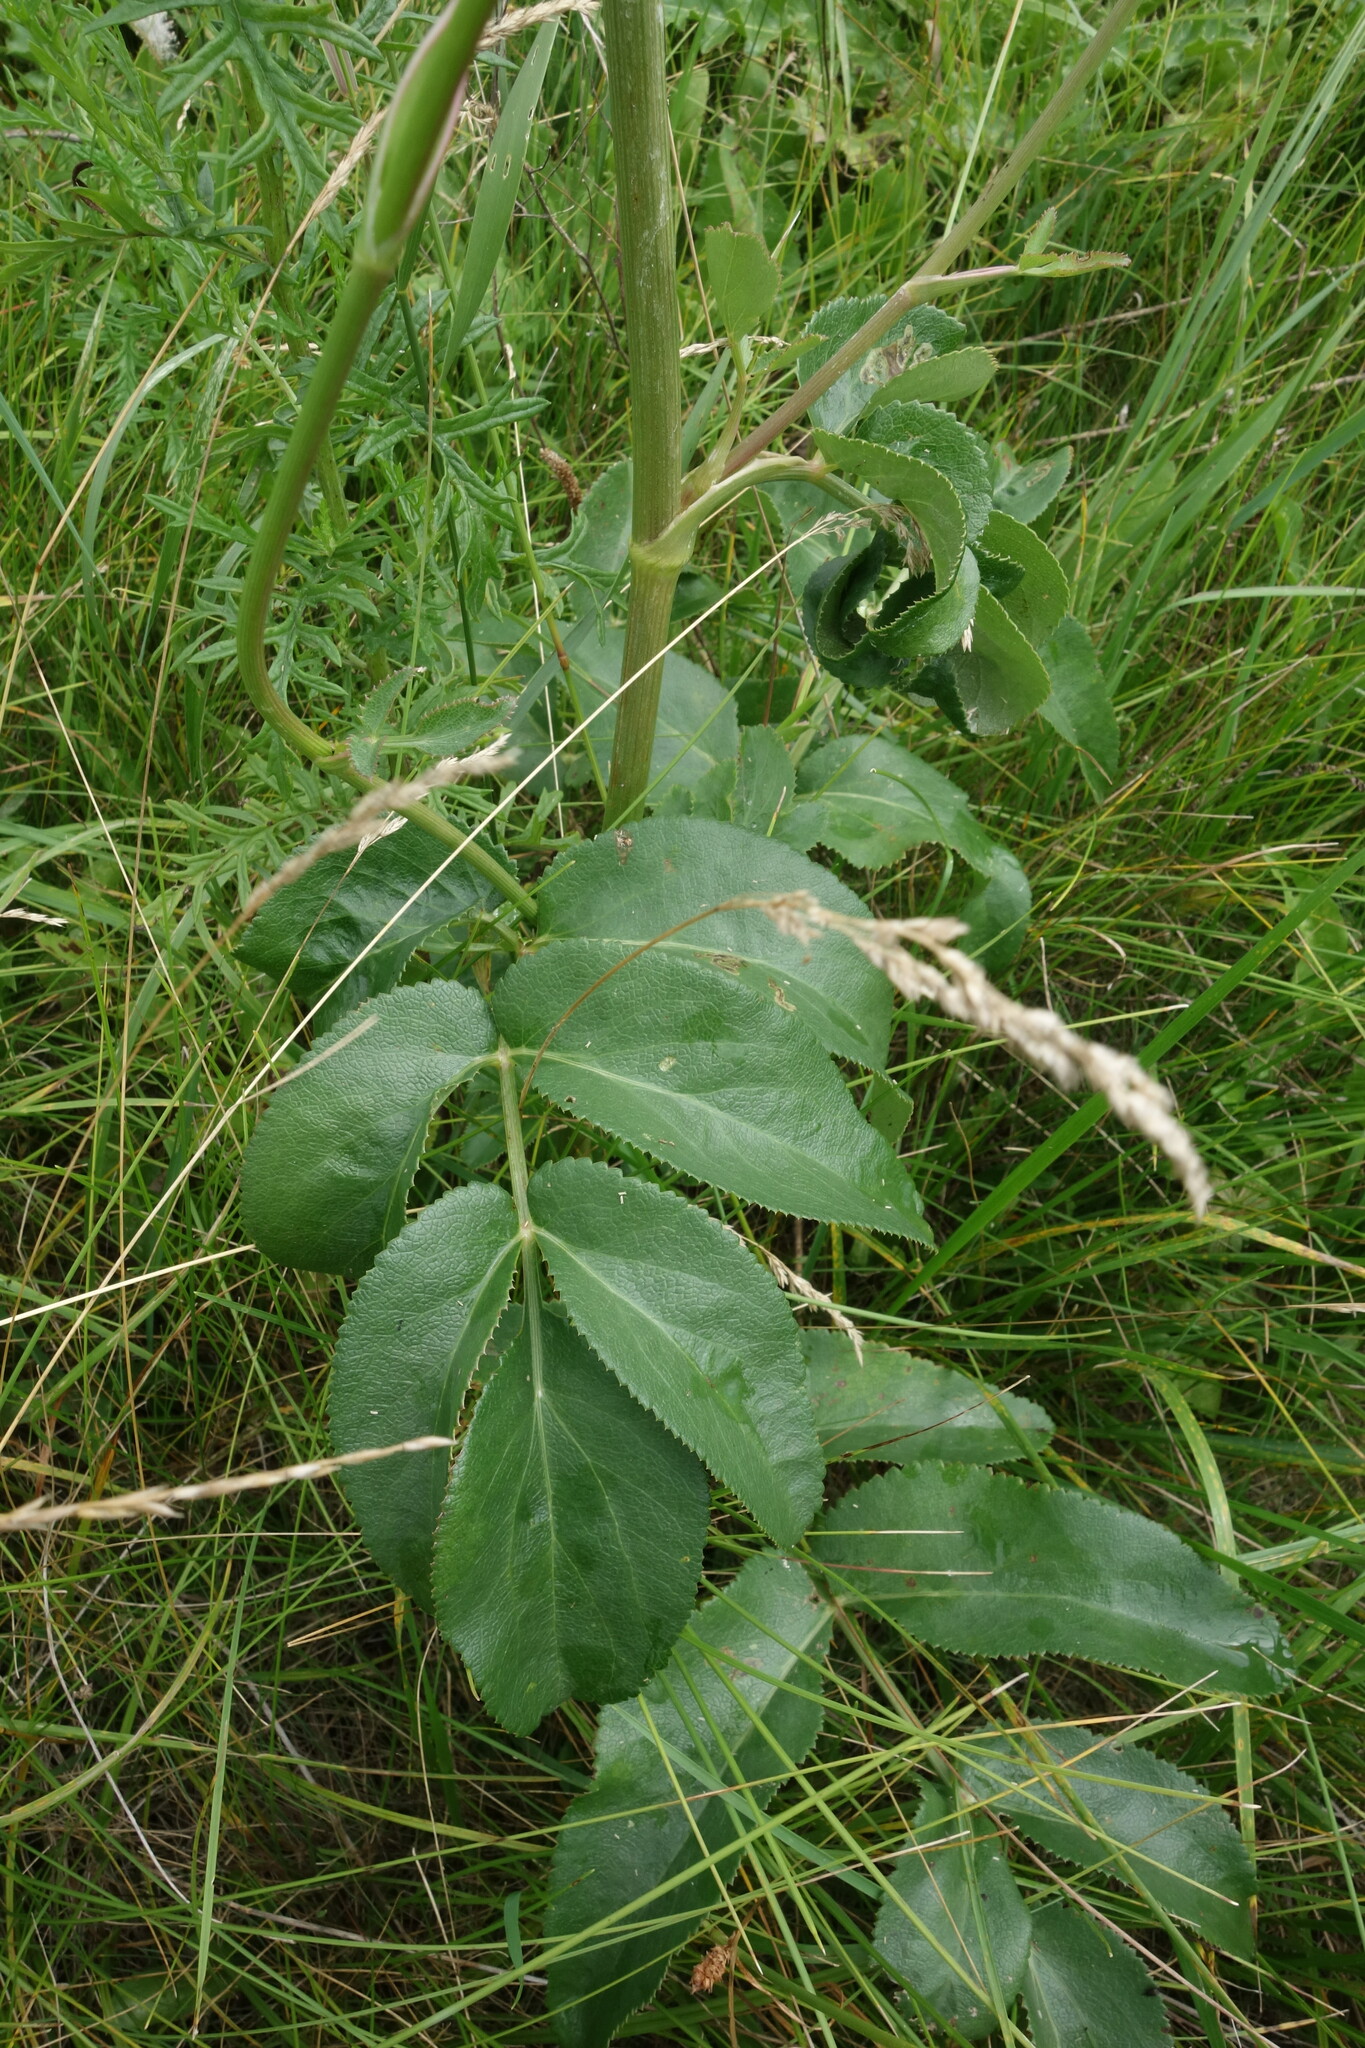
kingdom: Plantae
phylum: Tracheophyta
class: Magnoliopsida
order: Apiales
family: Apiaceae
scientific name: Apiaceae
